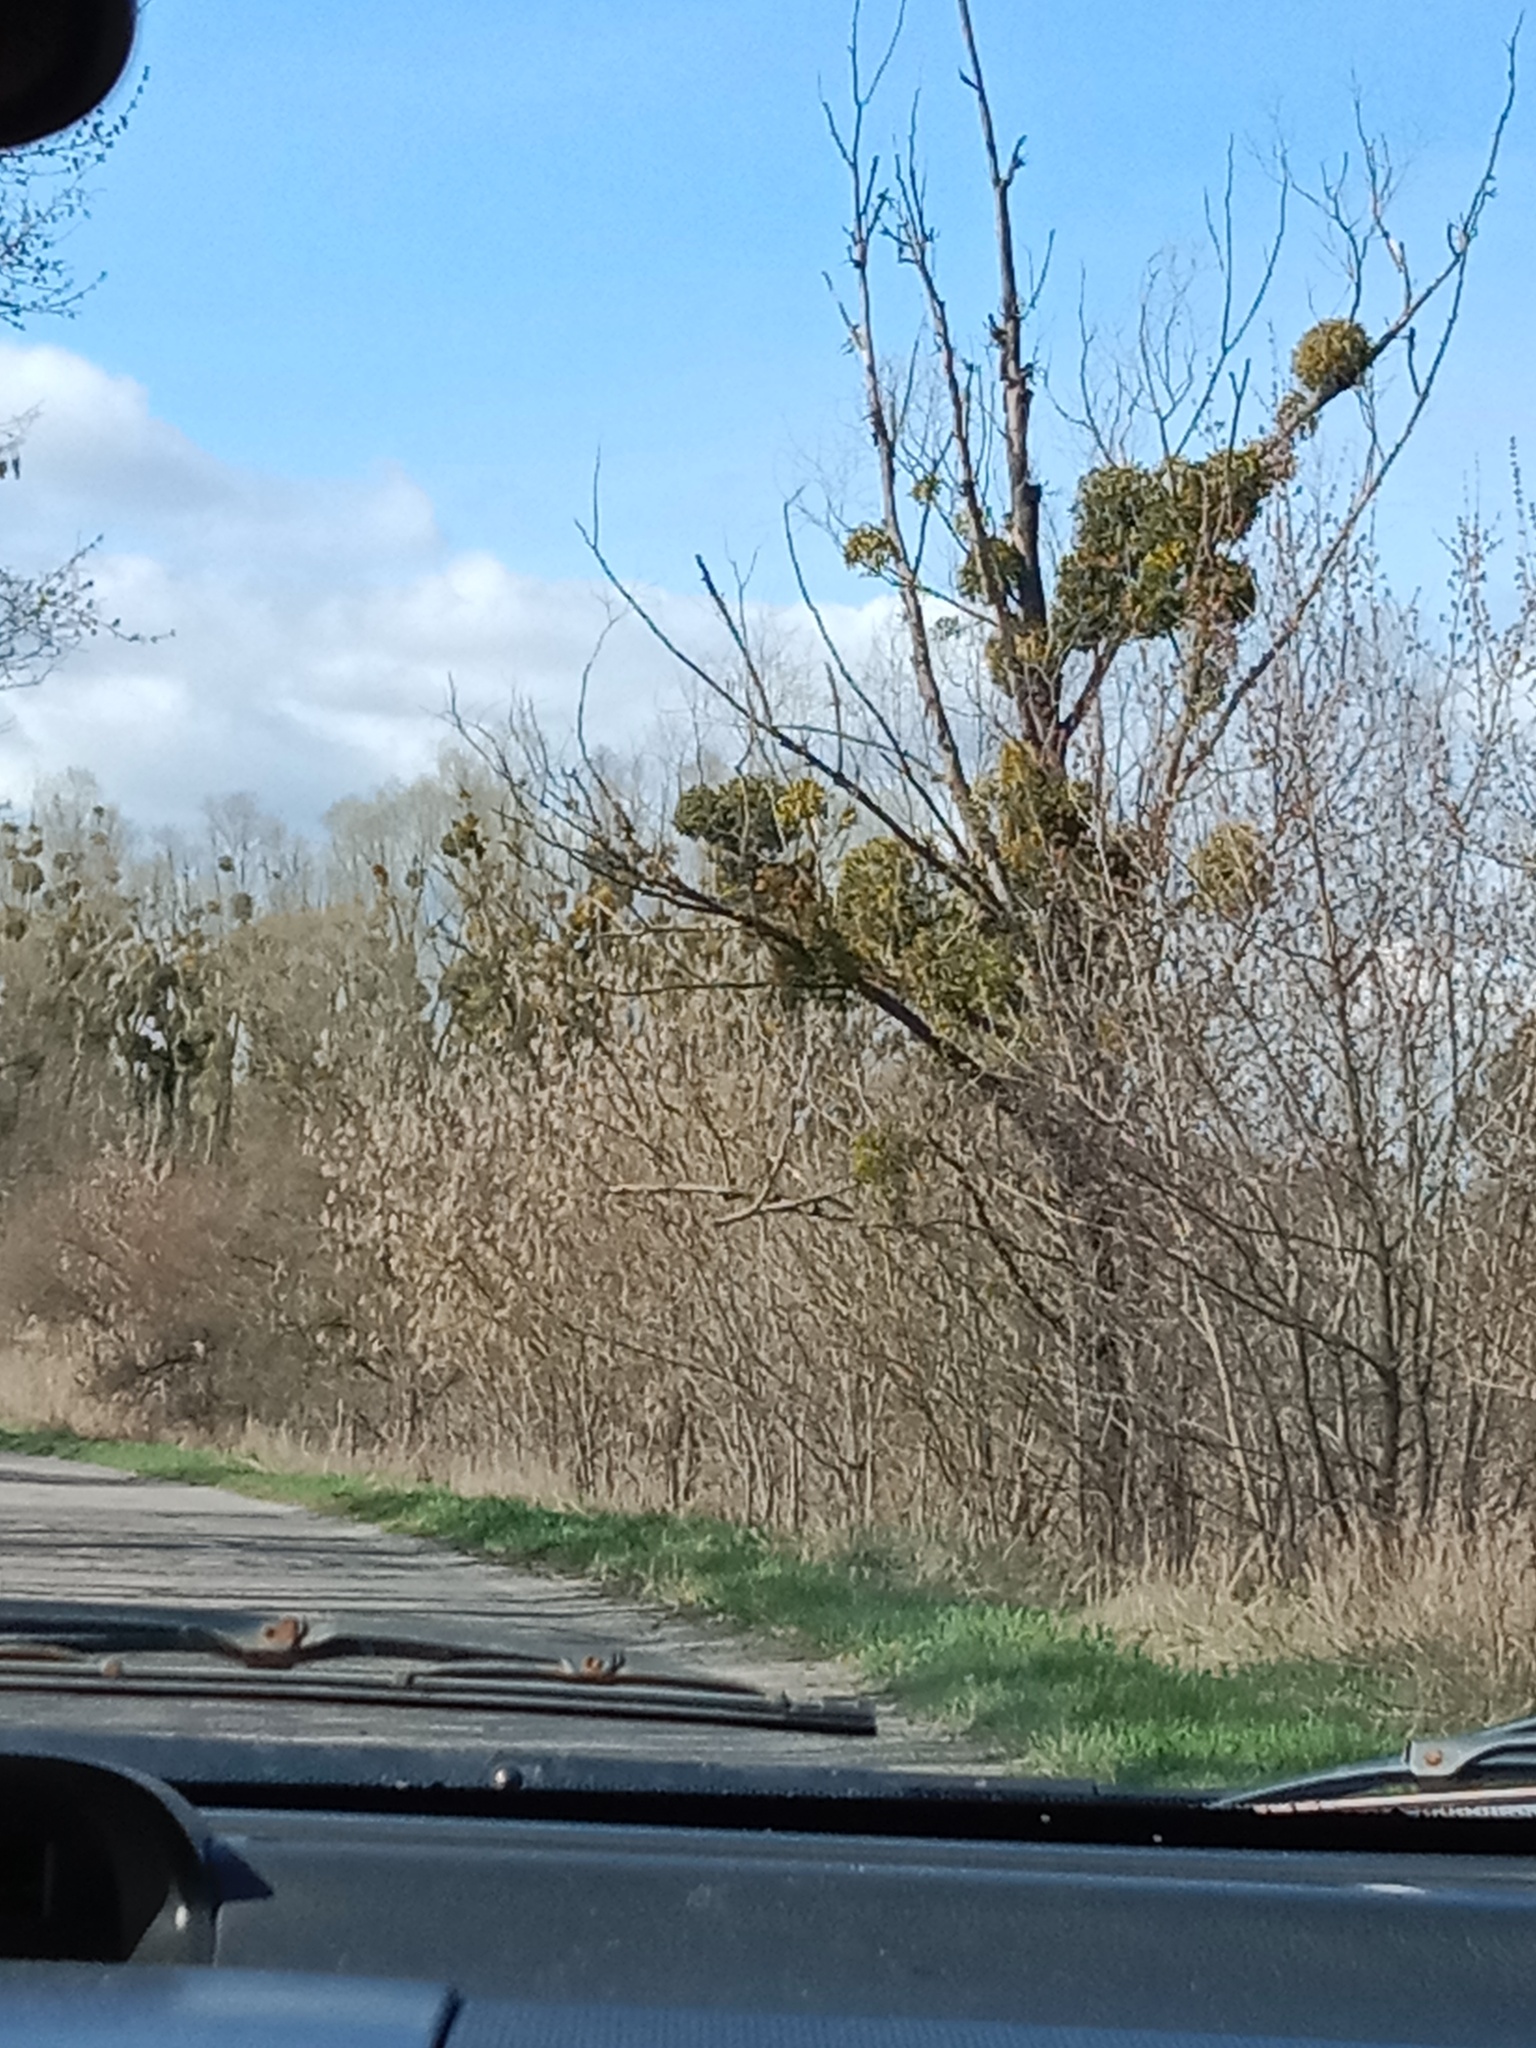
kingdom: Plantae
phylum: Tracheophyta
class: Magnoliopsida
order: Santalales
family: Viscaceae
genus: Viscum
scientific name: Viscum album
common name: Mistletoe
